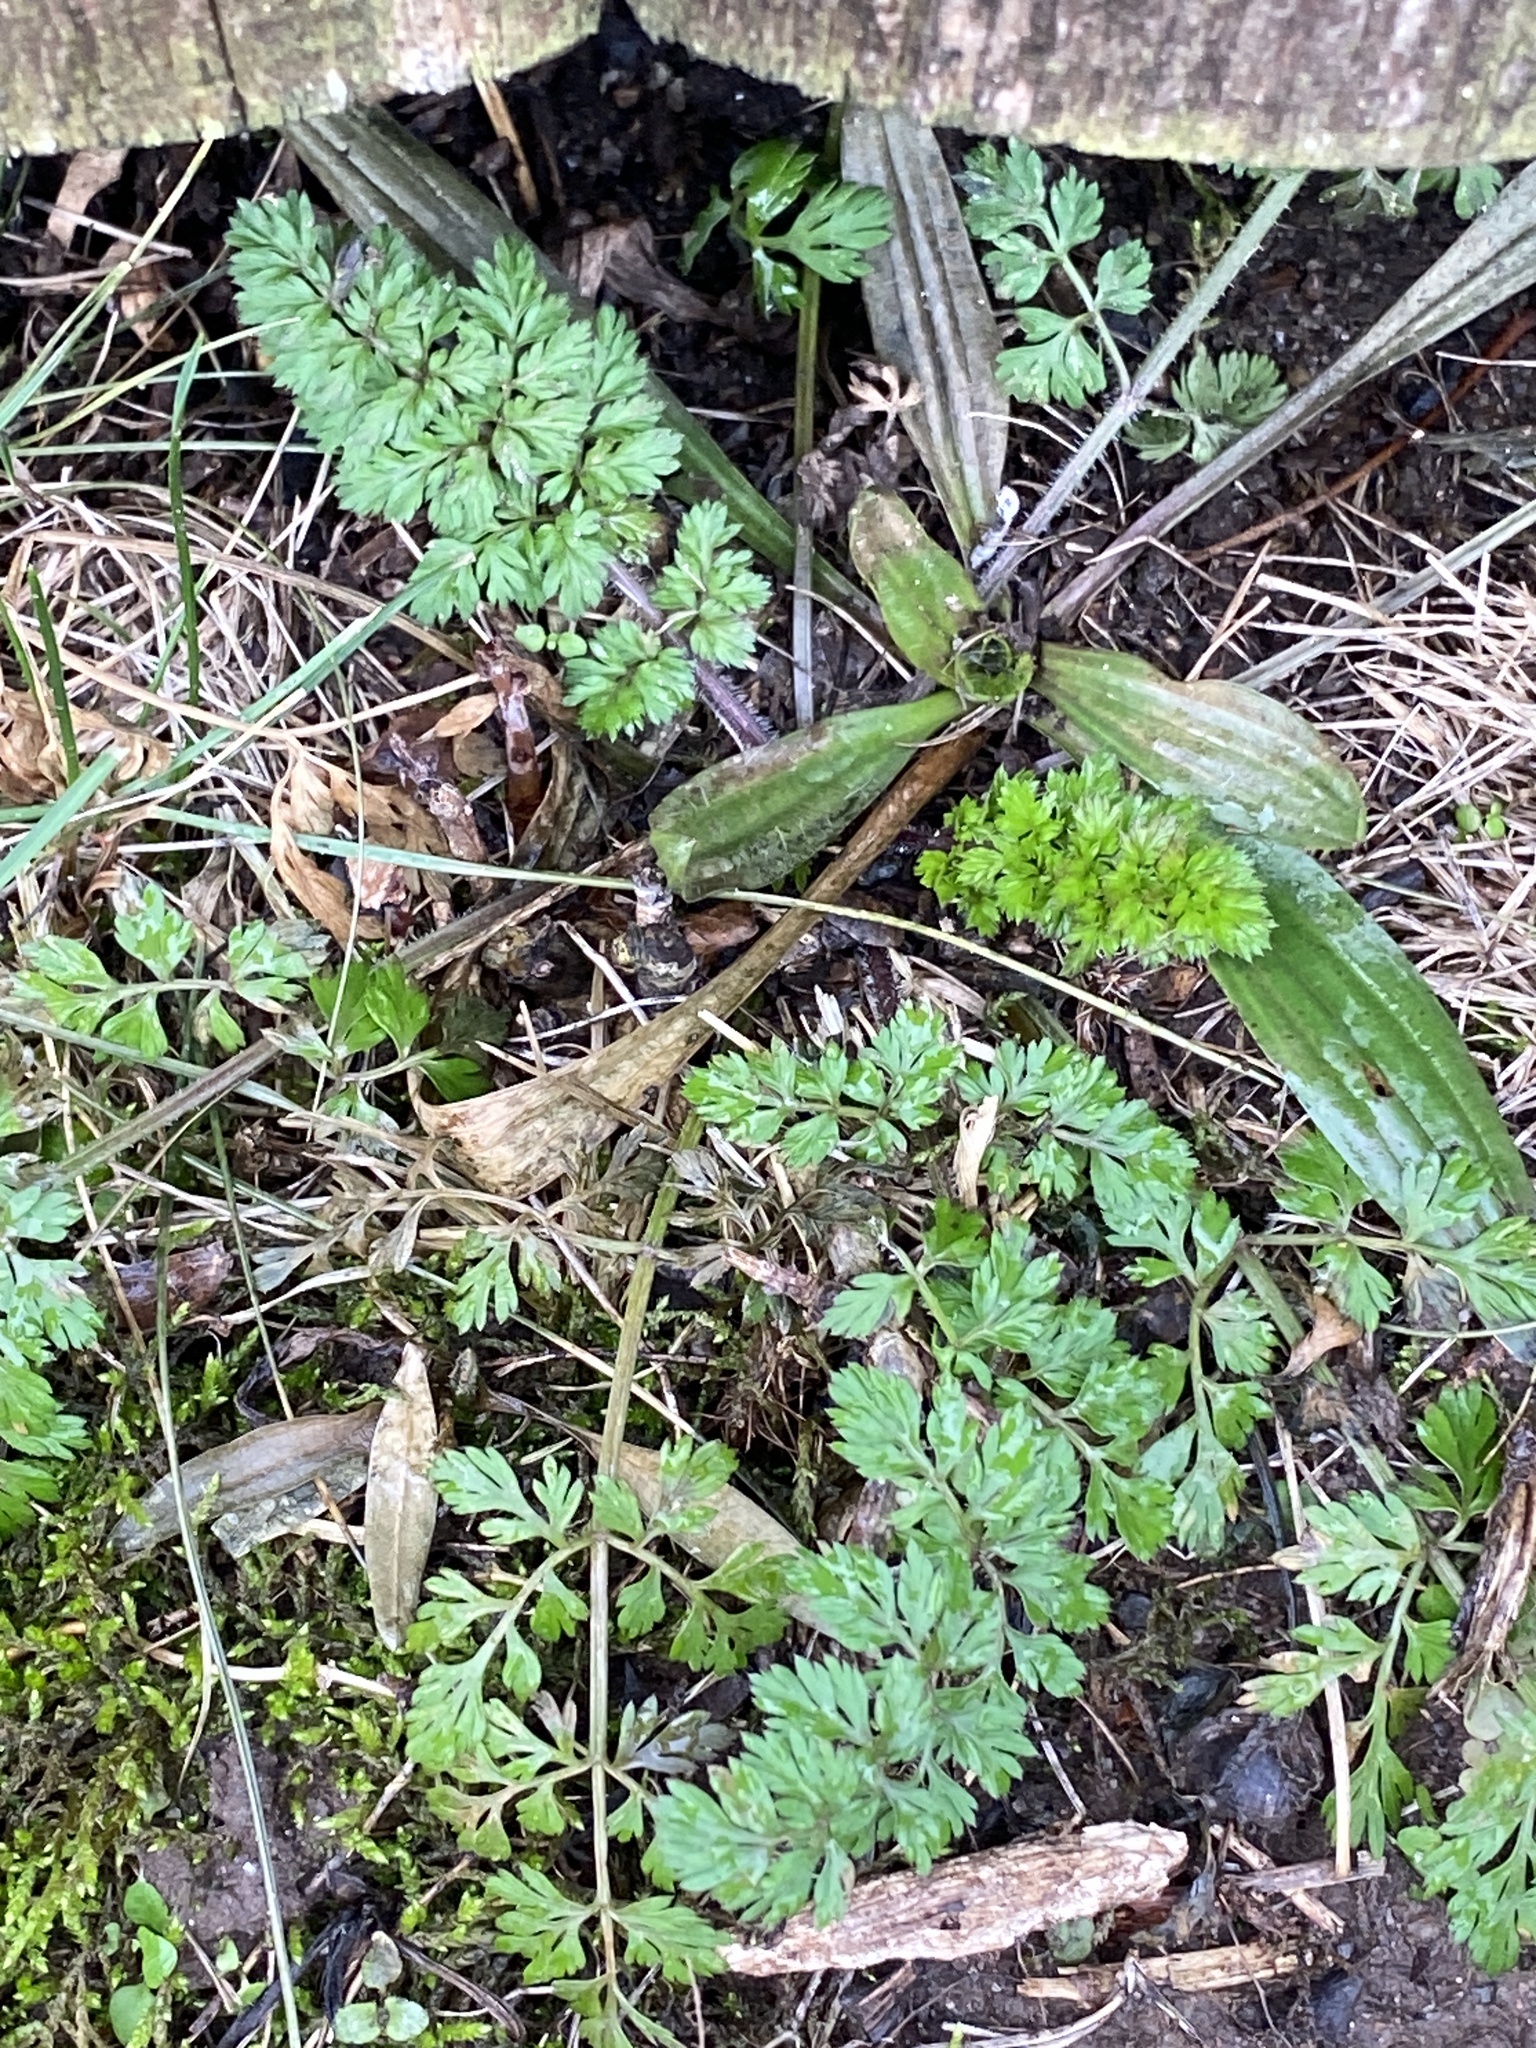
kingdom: Plantae
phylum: Tracheophyta
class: Magnoliopsida
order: Apiales
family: Apiaceae
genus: Daucus
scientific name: Daucus carota
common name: Wild carrot
